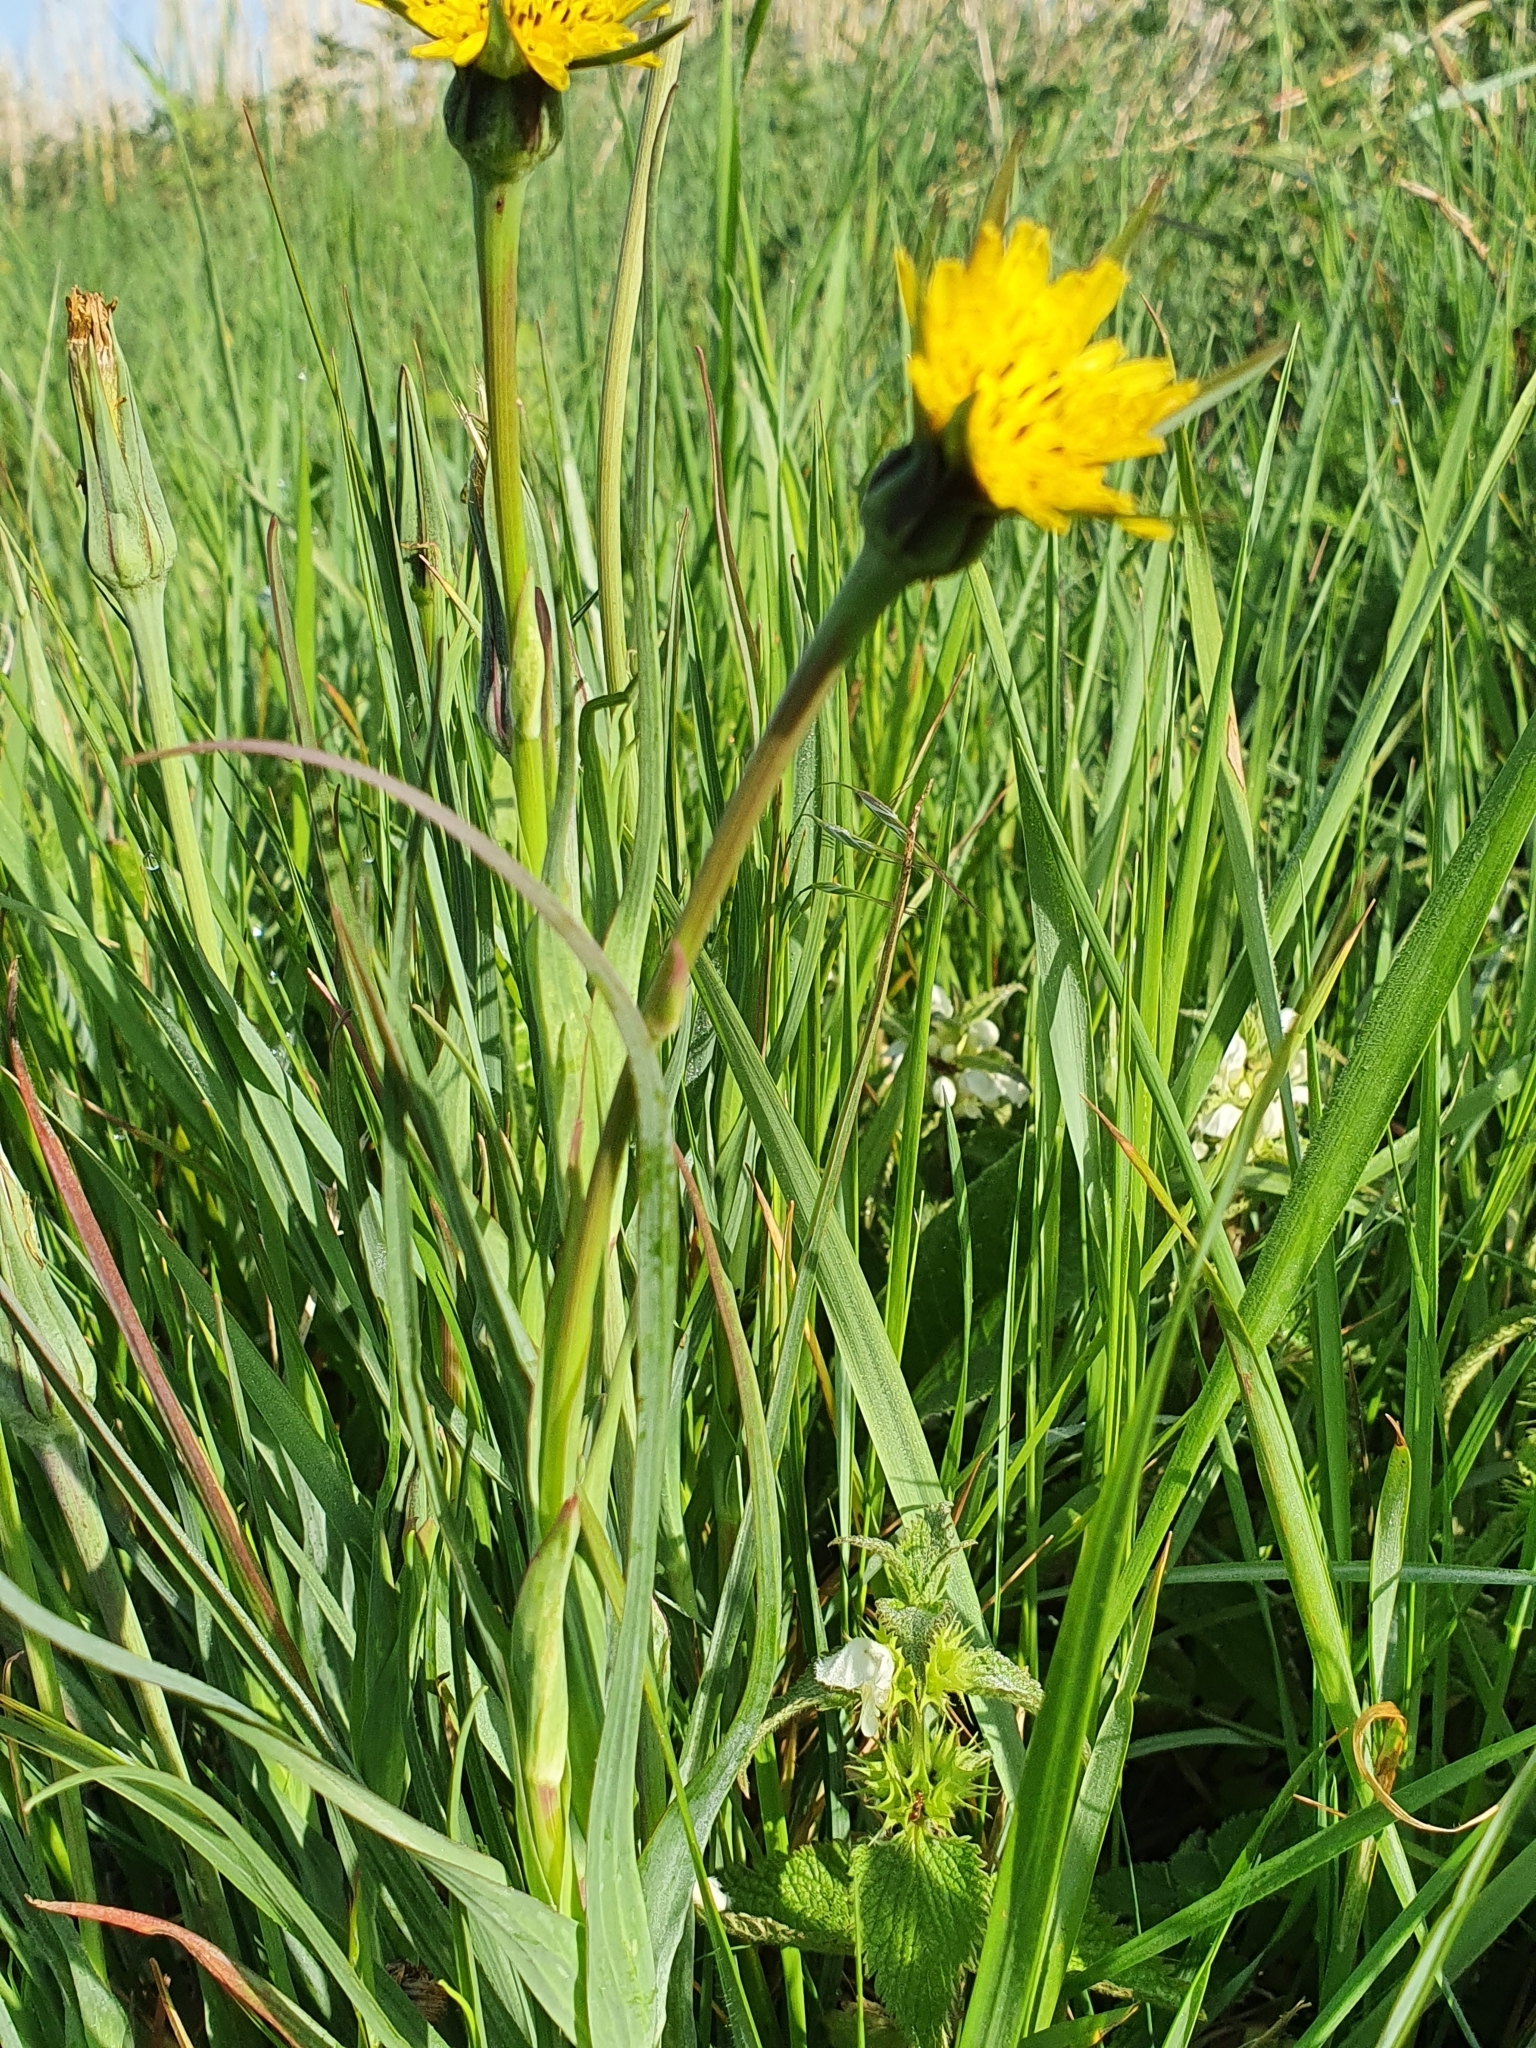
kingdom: Plantae
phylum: Tracheophyta
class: Magnoliopsida
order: Asterales
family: Asteraceae
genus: Tragopogon
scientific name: Tragopogon minor
